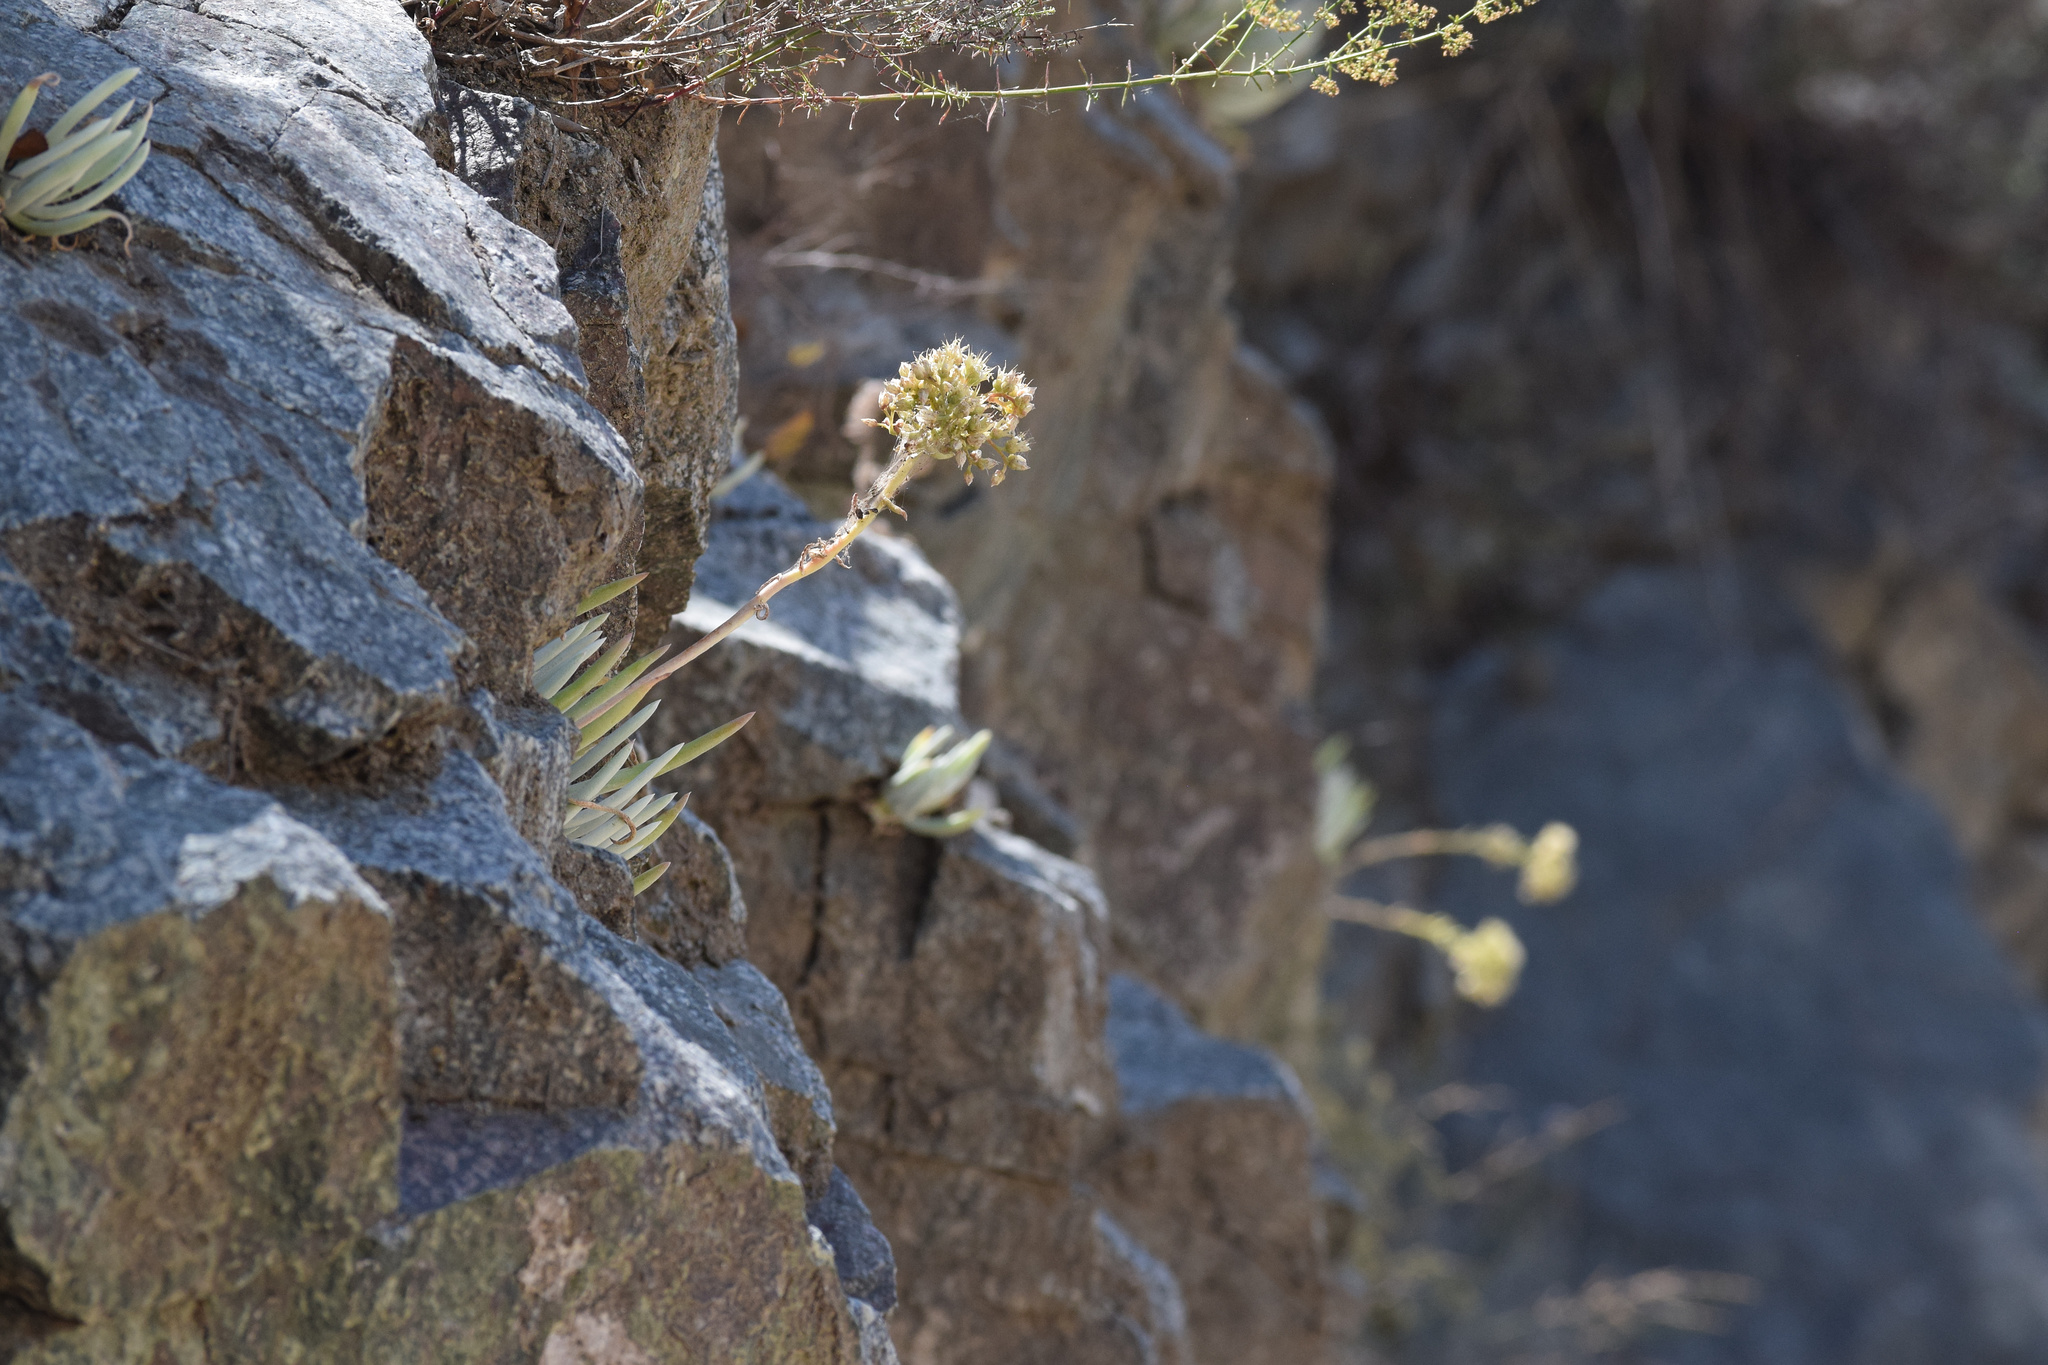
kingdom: Plantae
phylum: Tracheophyta
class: Magnoliopsida
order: Saxifragales
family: Crassulaceae
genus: Dudleya
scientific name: Dudleya densiflora
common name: San gabriel mountains dudleya
